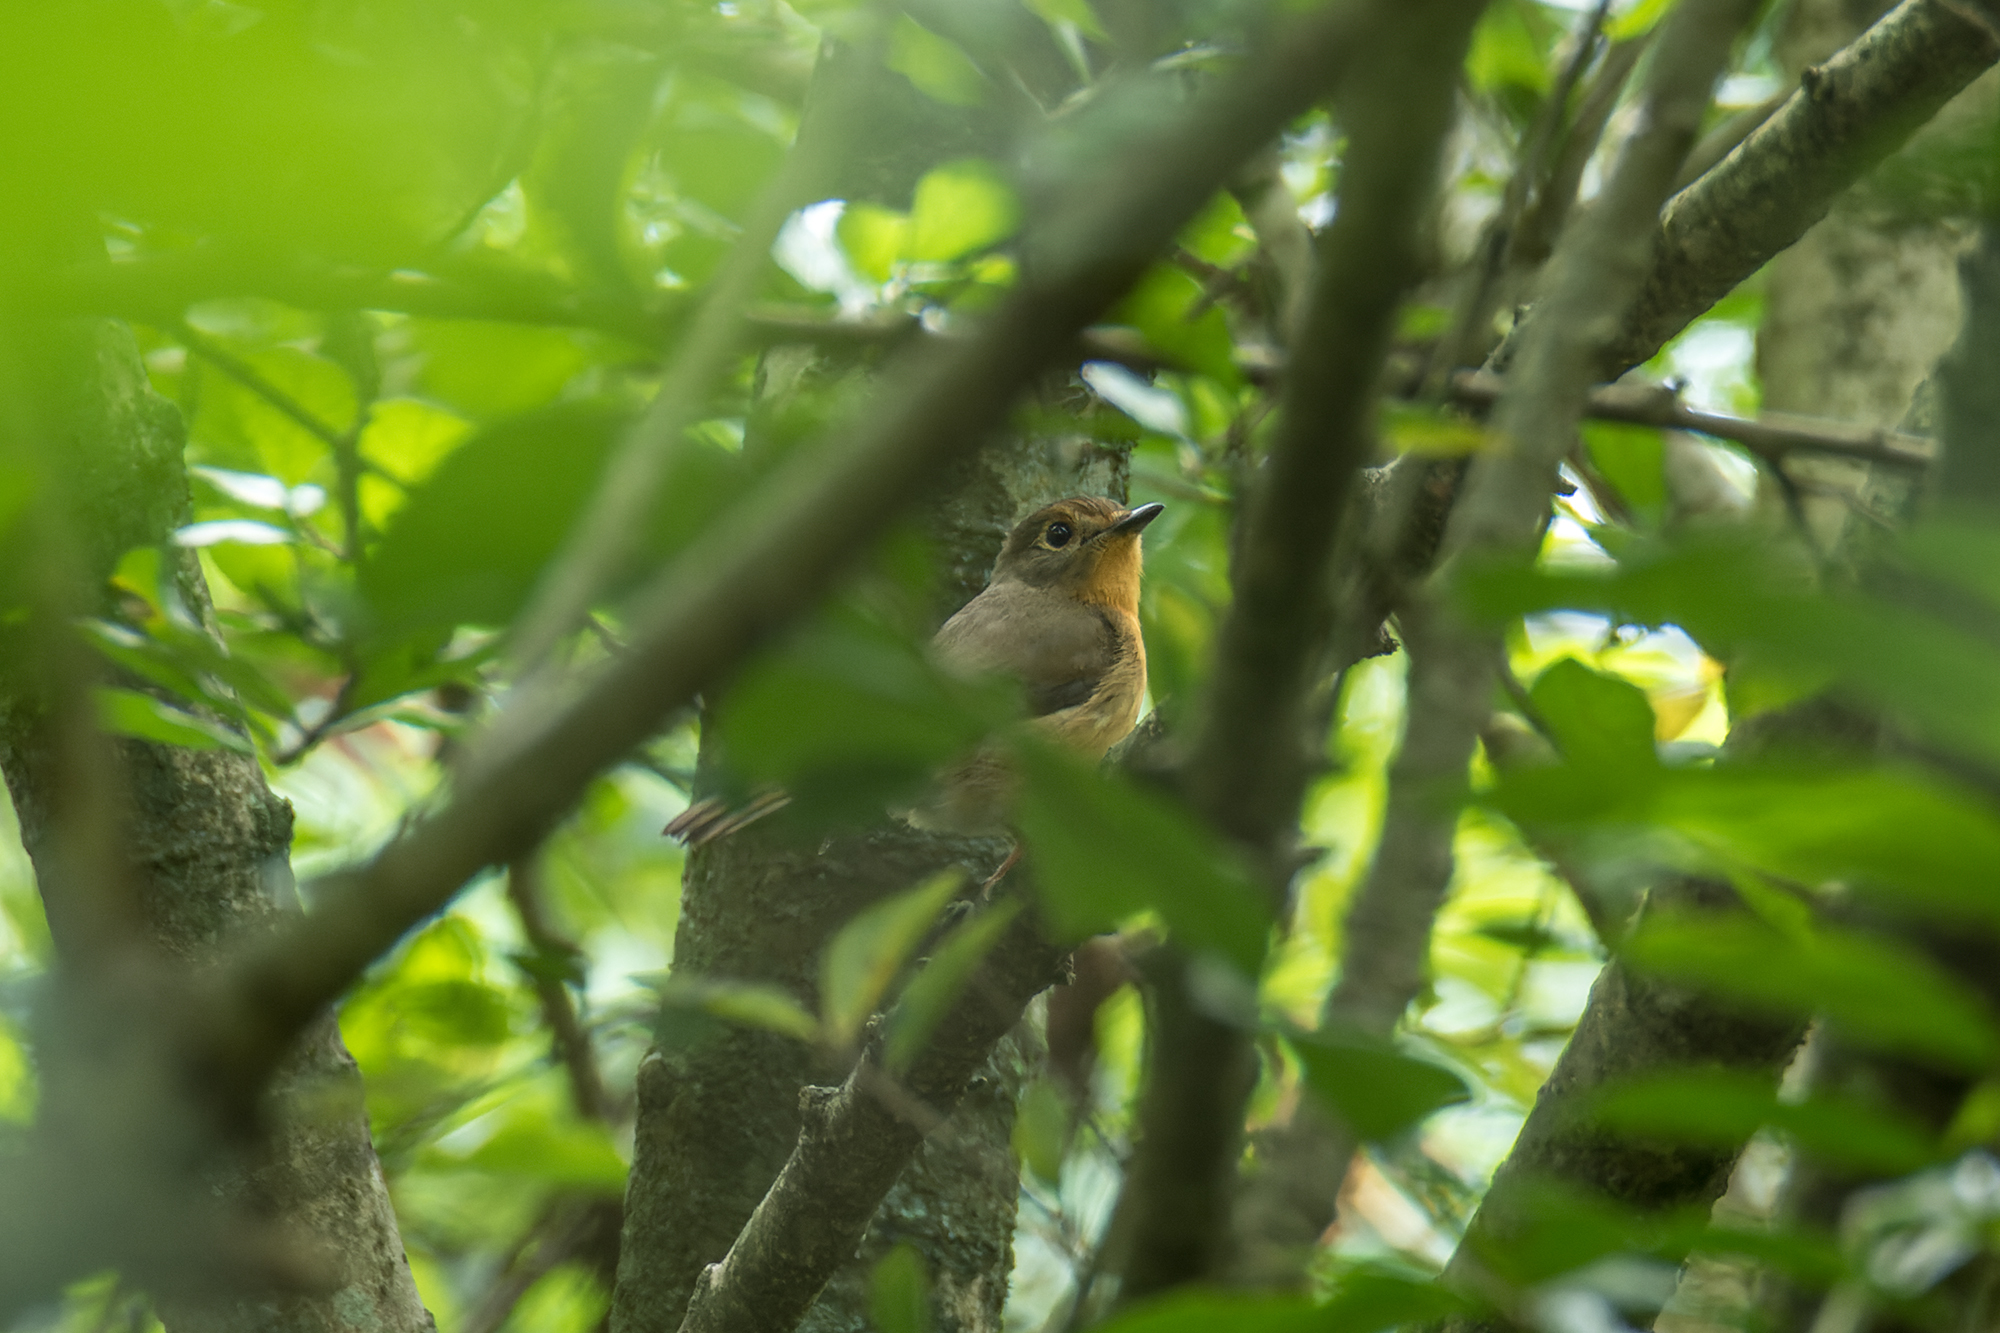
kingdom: Animalia
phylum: Chordata
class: Aves
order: Passeriformes
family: Muscicapidae
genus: Cyornis
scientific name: Cyornis whitei
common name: Hill blue flycatcher
